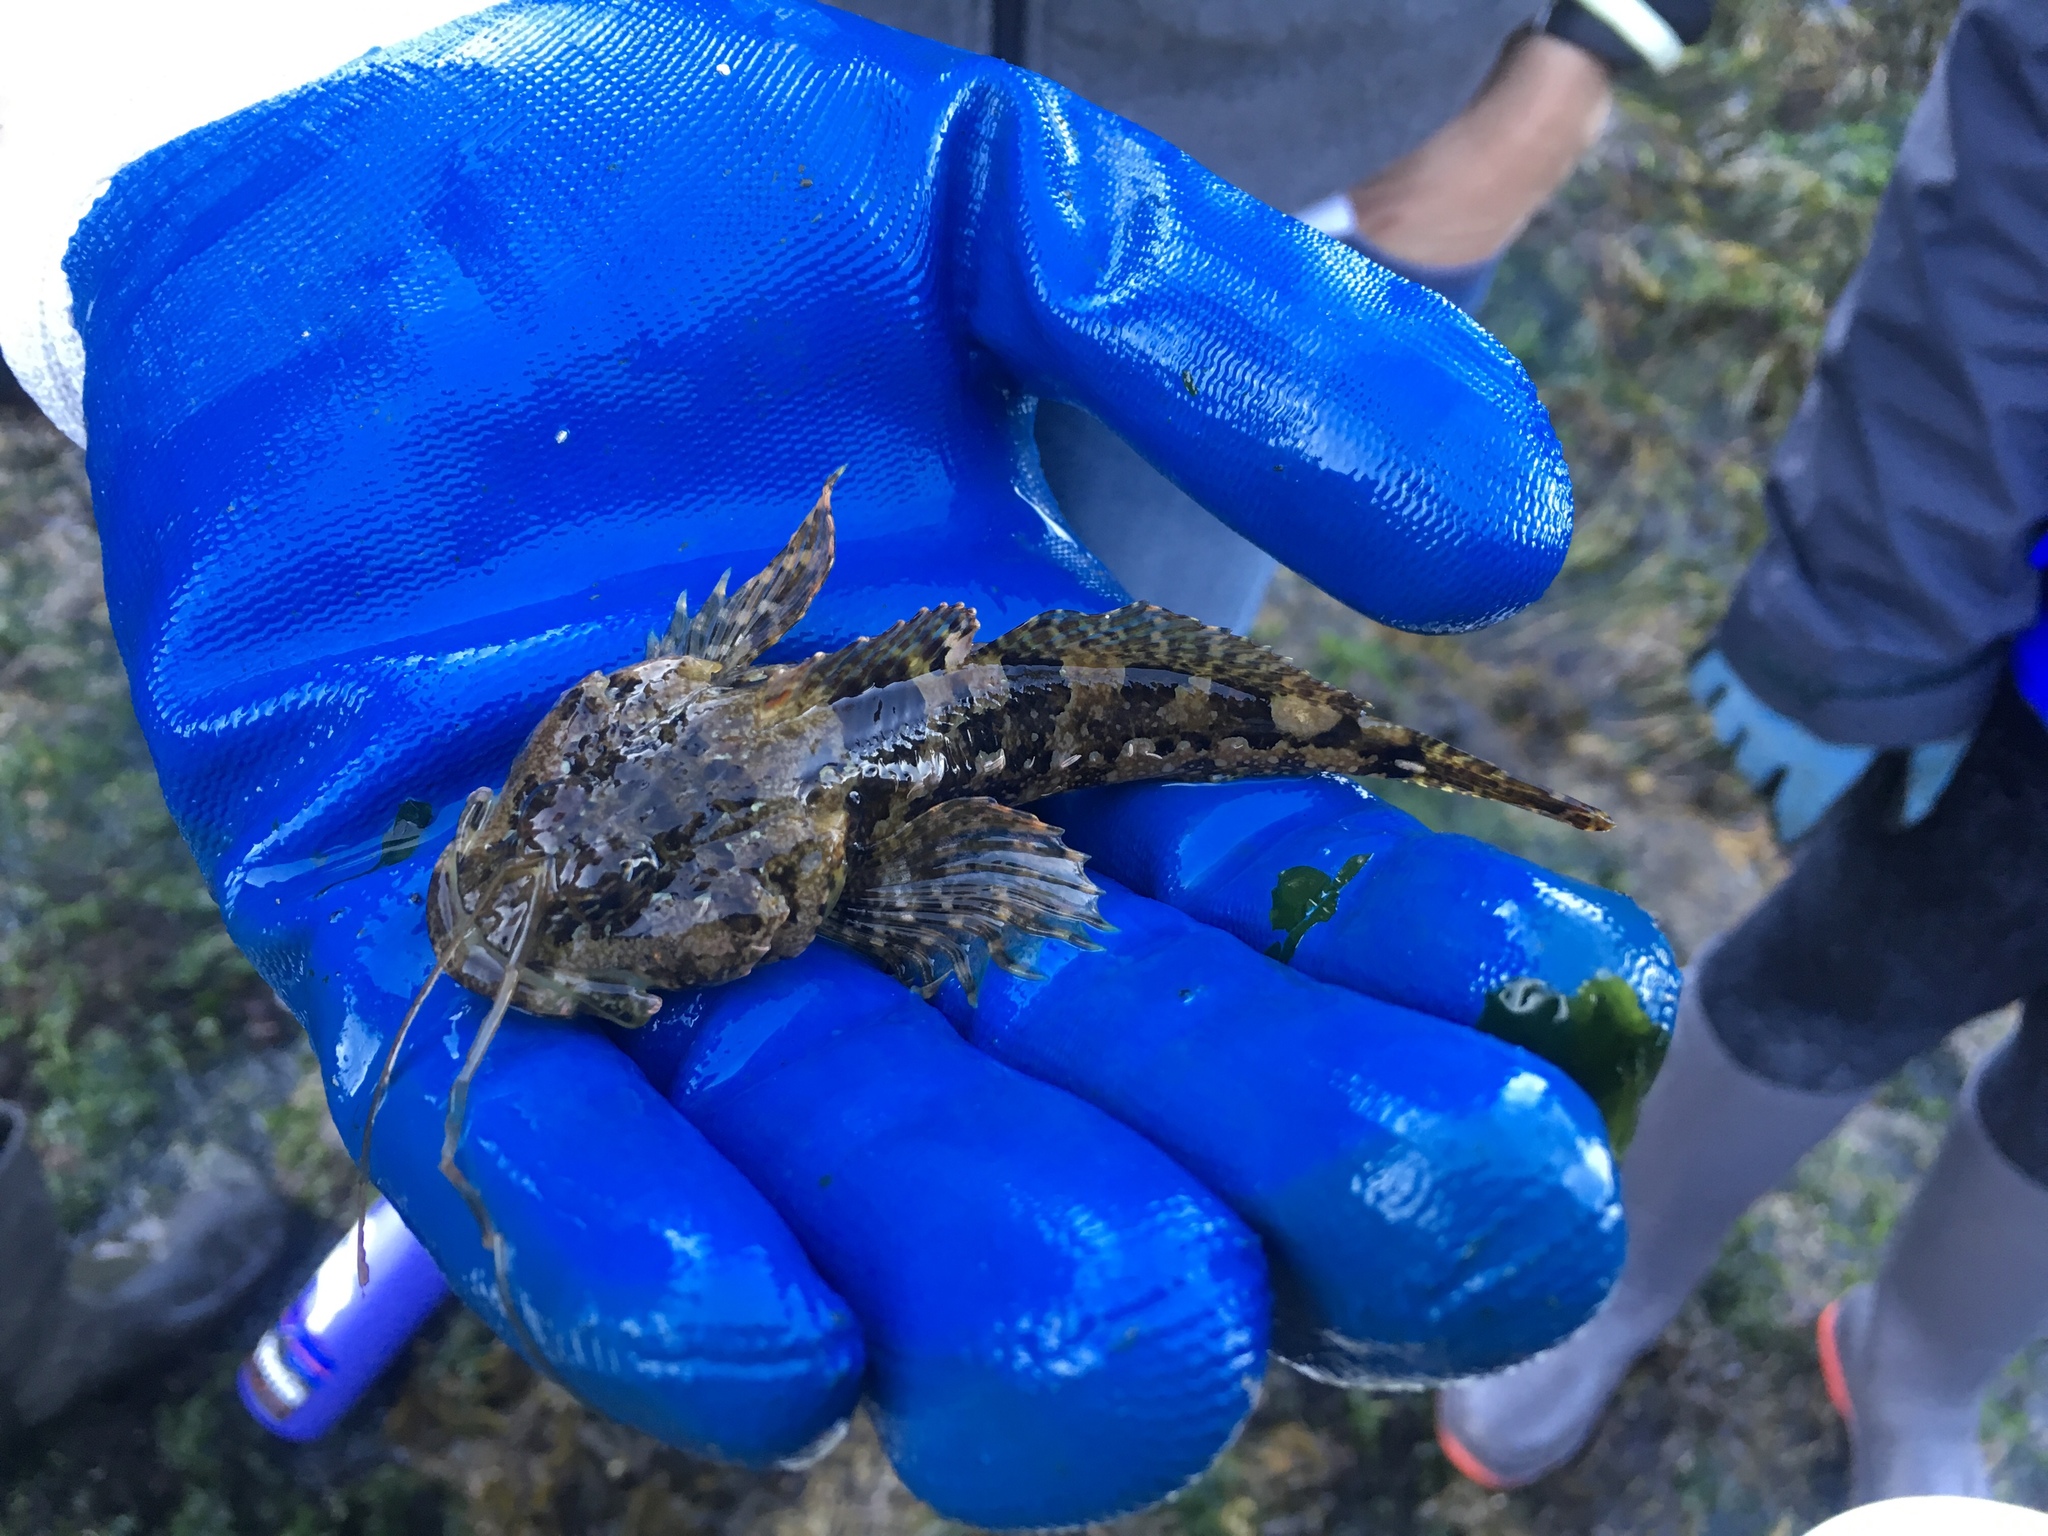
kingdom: Animalia
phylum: Chordata
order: Scorpaeniformes
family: Cottidae
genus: Artedius
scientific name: Artedius lateralis
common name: Smooth-head sculpin
